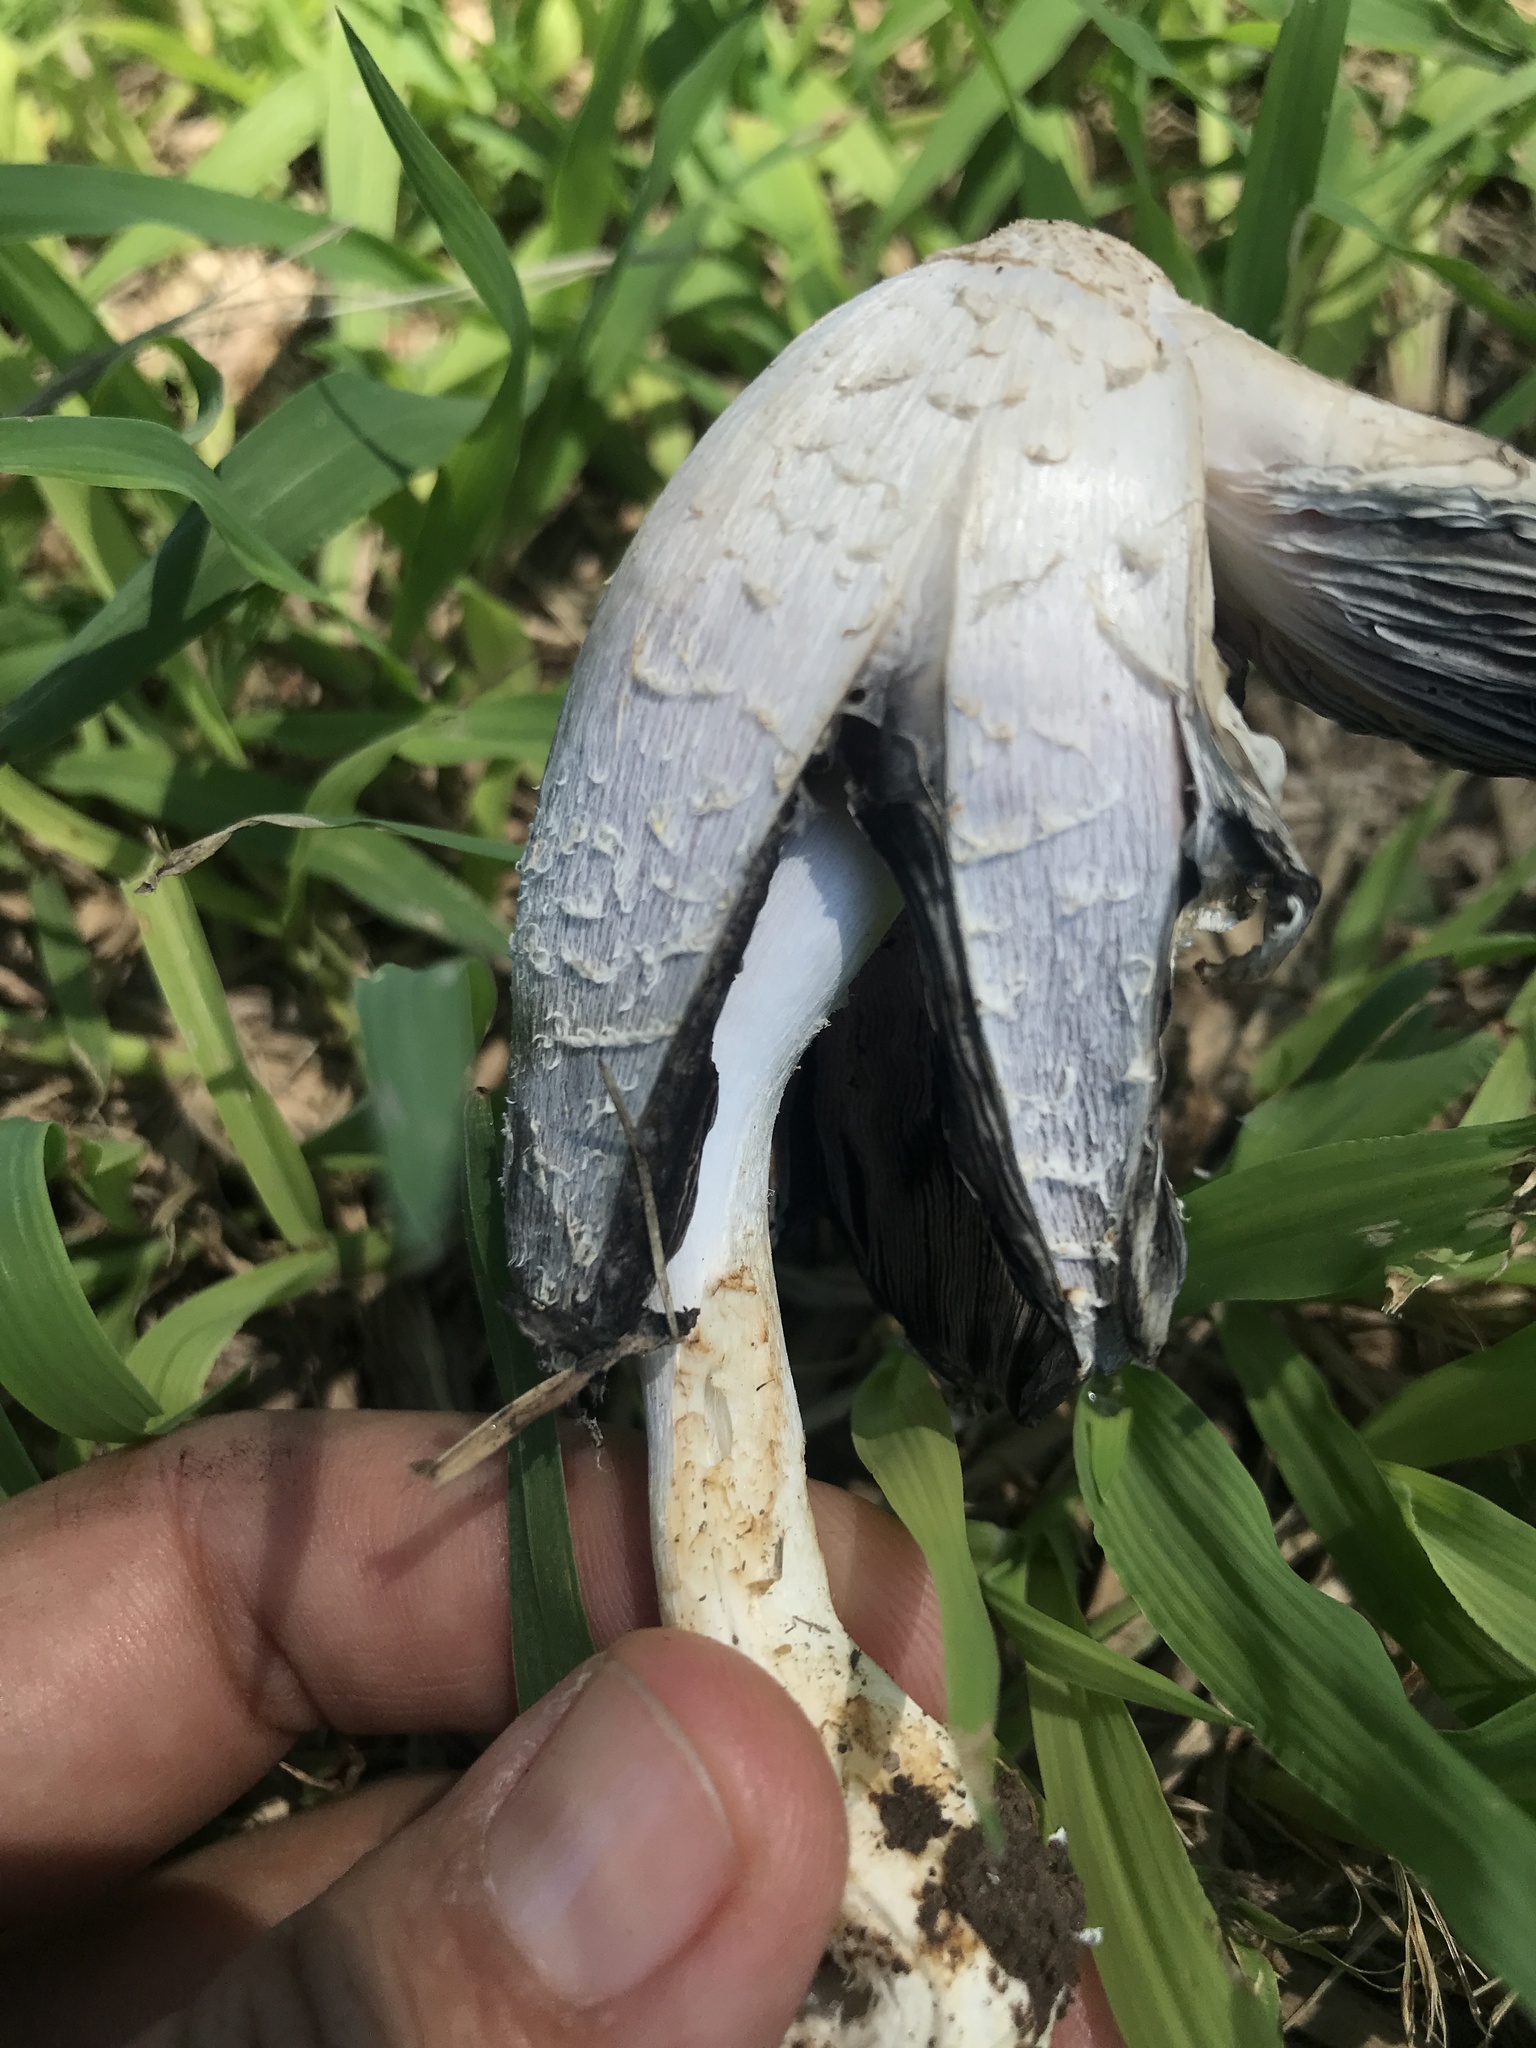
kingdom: Fungi
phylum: Basidiomycota
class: Agaricomycetes
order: Agaricales
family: Agaricaceae
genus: Coprinus
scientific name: Coprinus comatus
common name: Lawyer's wig
